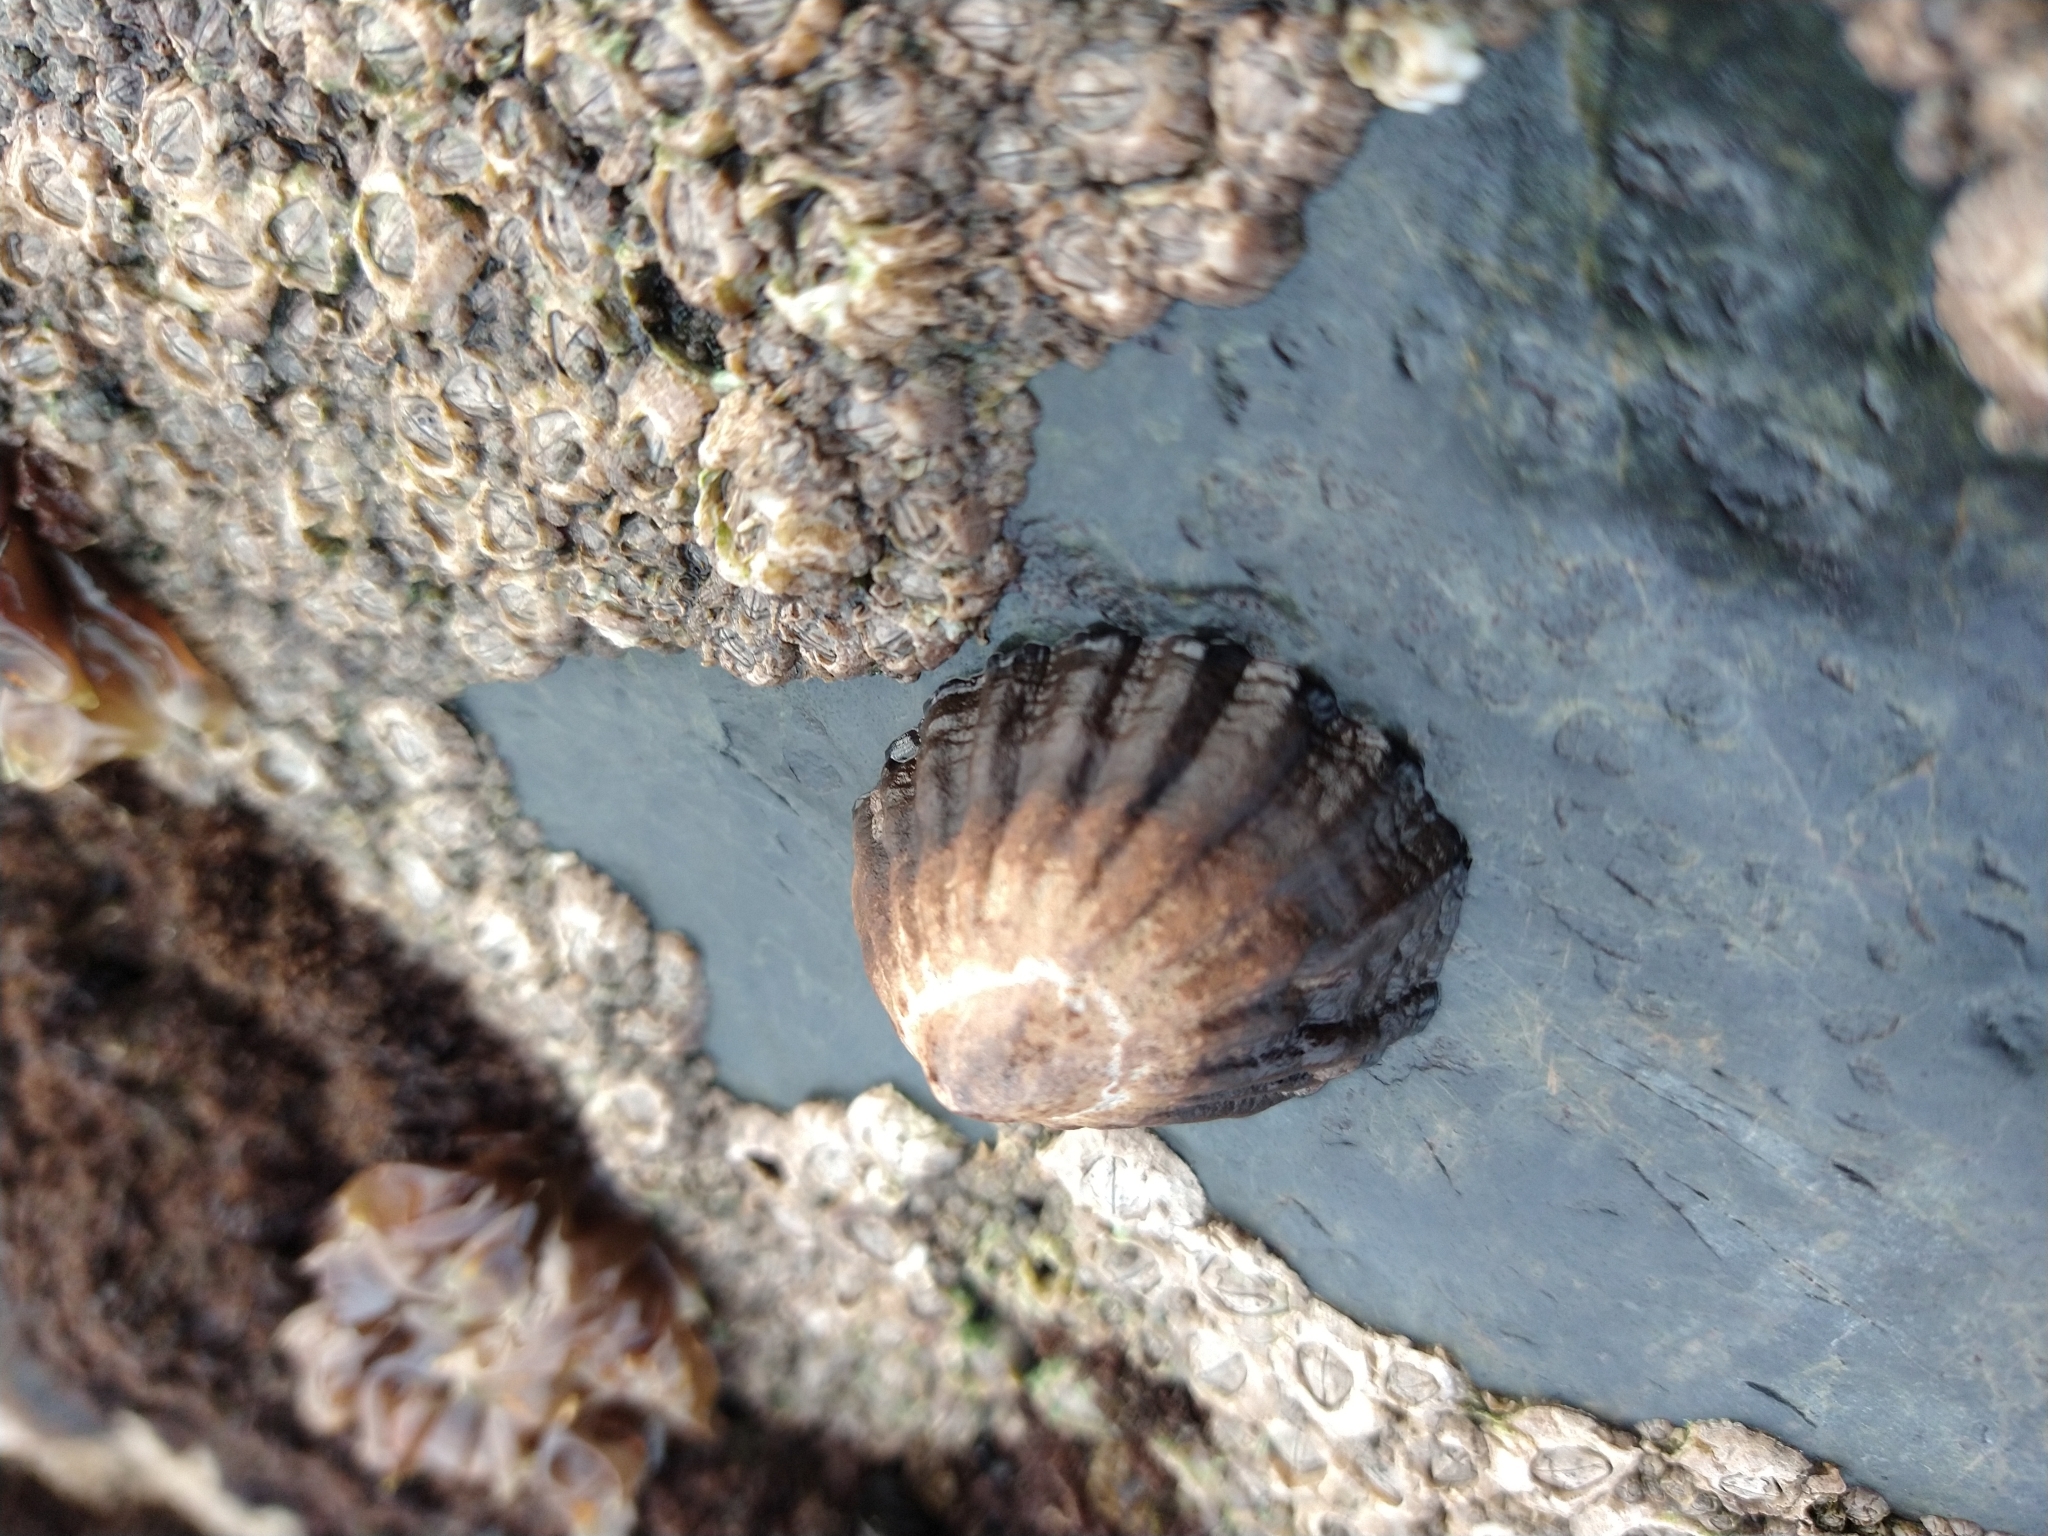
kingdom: Animalia
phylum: Mollusca
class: Gastropoda
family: Nacellidae
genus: Nacella
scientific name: Nacella magellanica
